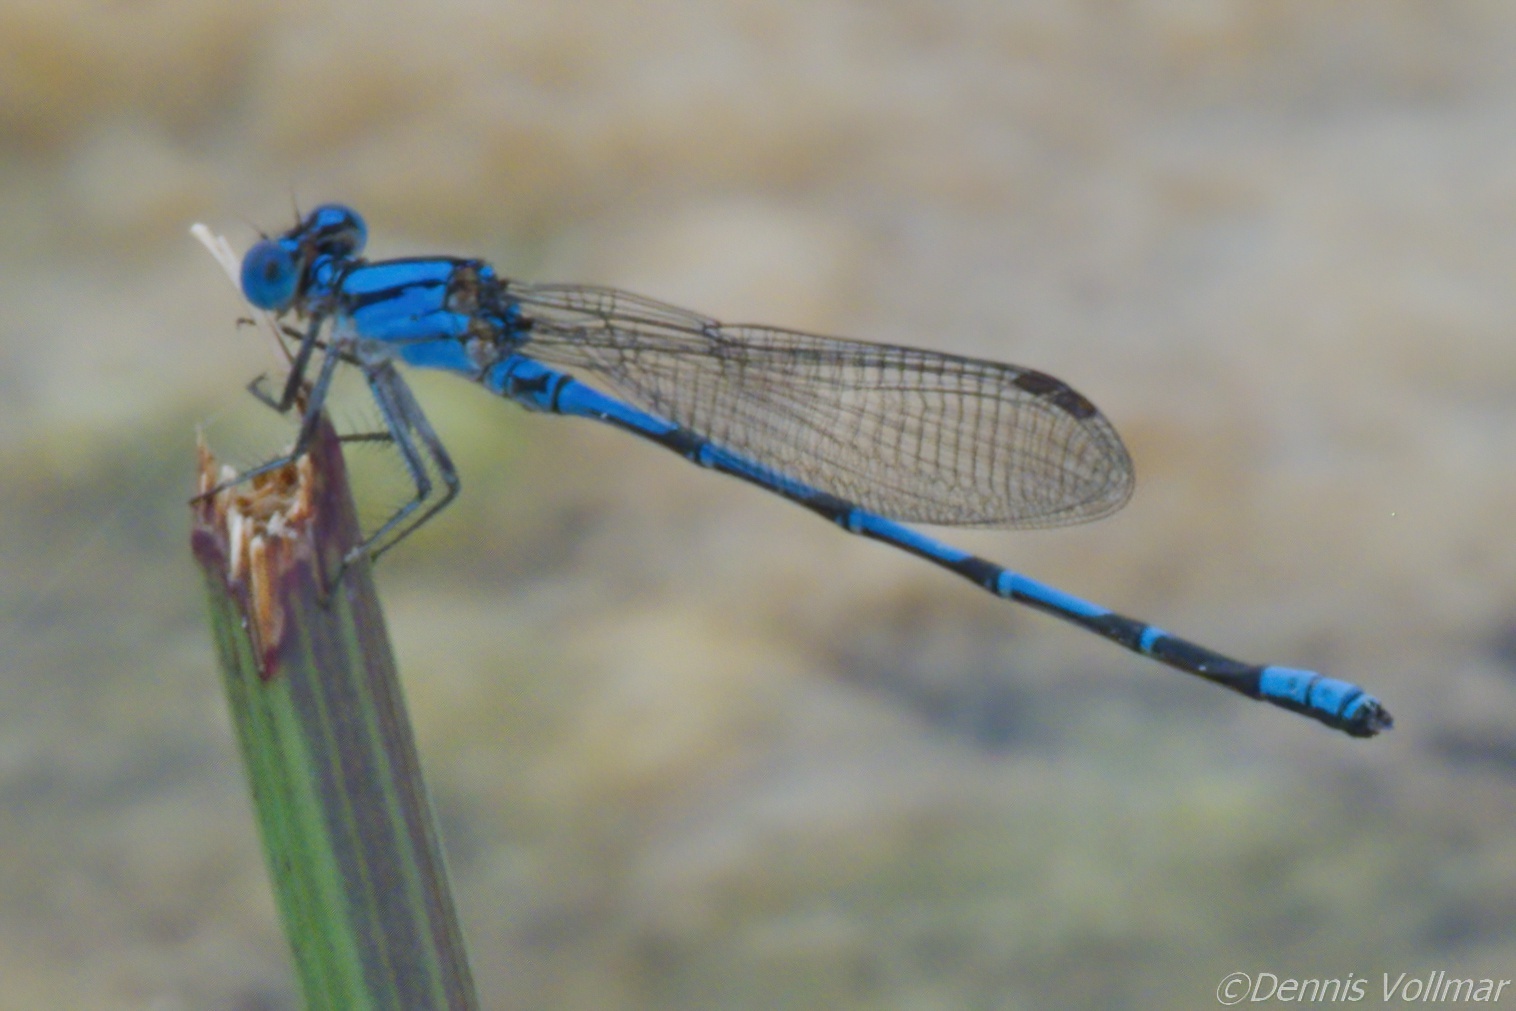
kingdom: Animalia
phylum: Arthropoda
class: Insecta
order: Odonata
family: Coenagrionidae
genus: Argia
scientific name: Argia barretti
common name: Comanche dancer
